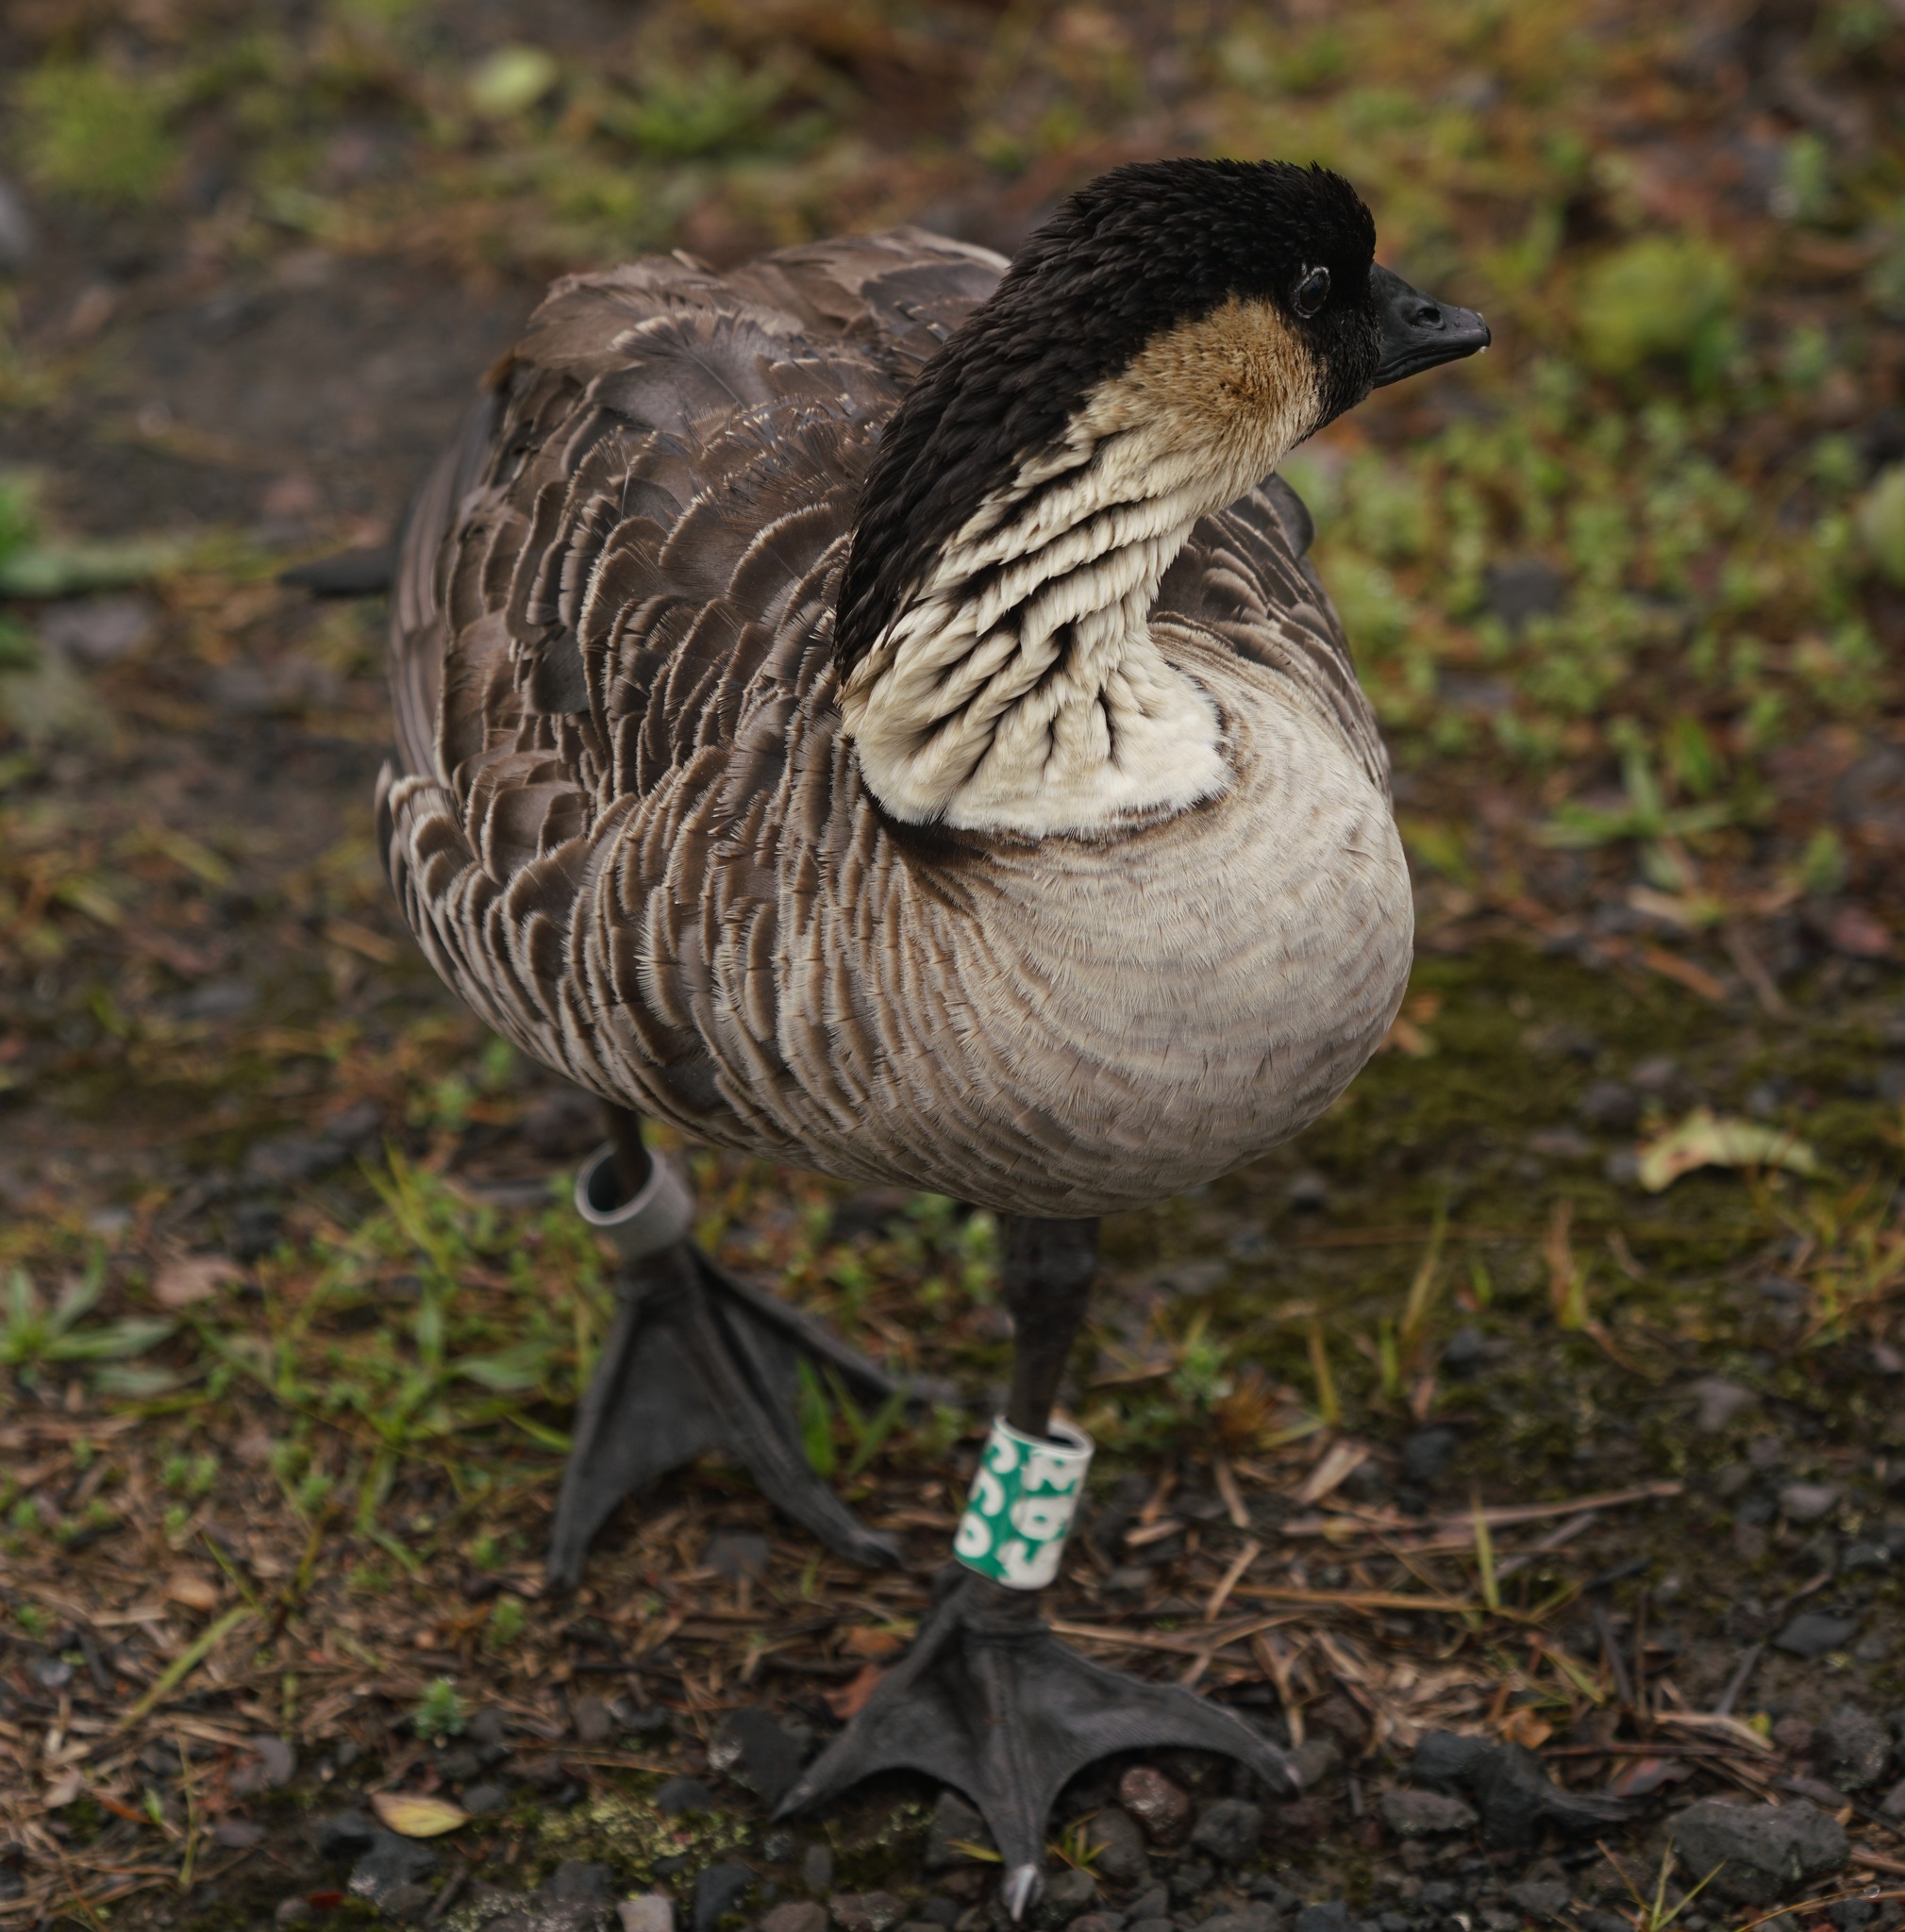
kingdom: Animalia
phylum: Chordata
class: Aves
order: Anseriformes
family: Anatidae
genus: Branta
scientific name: Branta sandvicensis
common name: Nene
